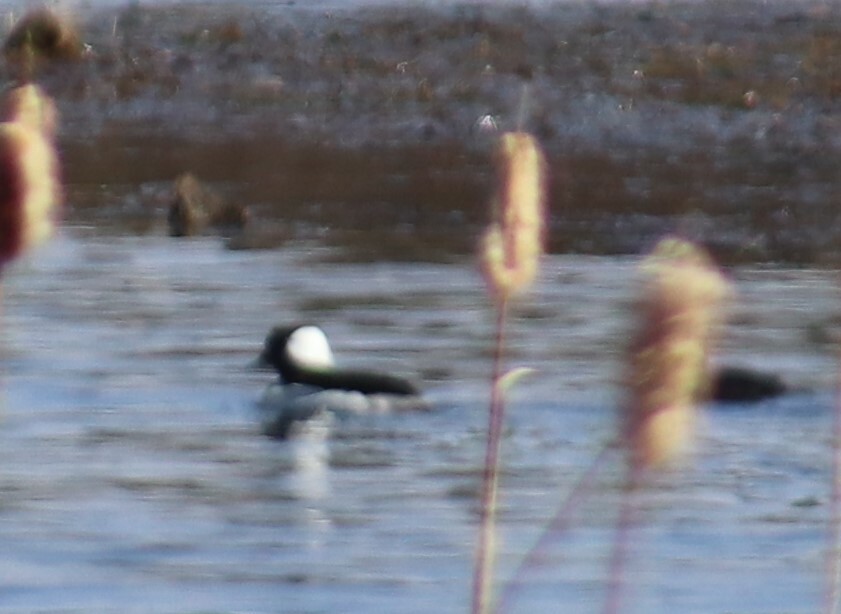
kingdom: Animalia
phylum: Chordata
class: Aves
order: Anseriformes
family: Anatidae
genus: Bucephala
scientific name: Bucephala albeola
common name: Bufflehead
